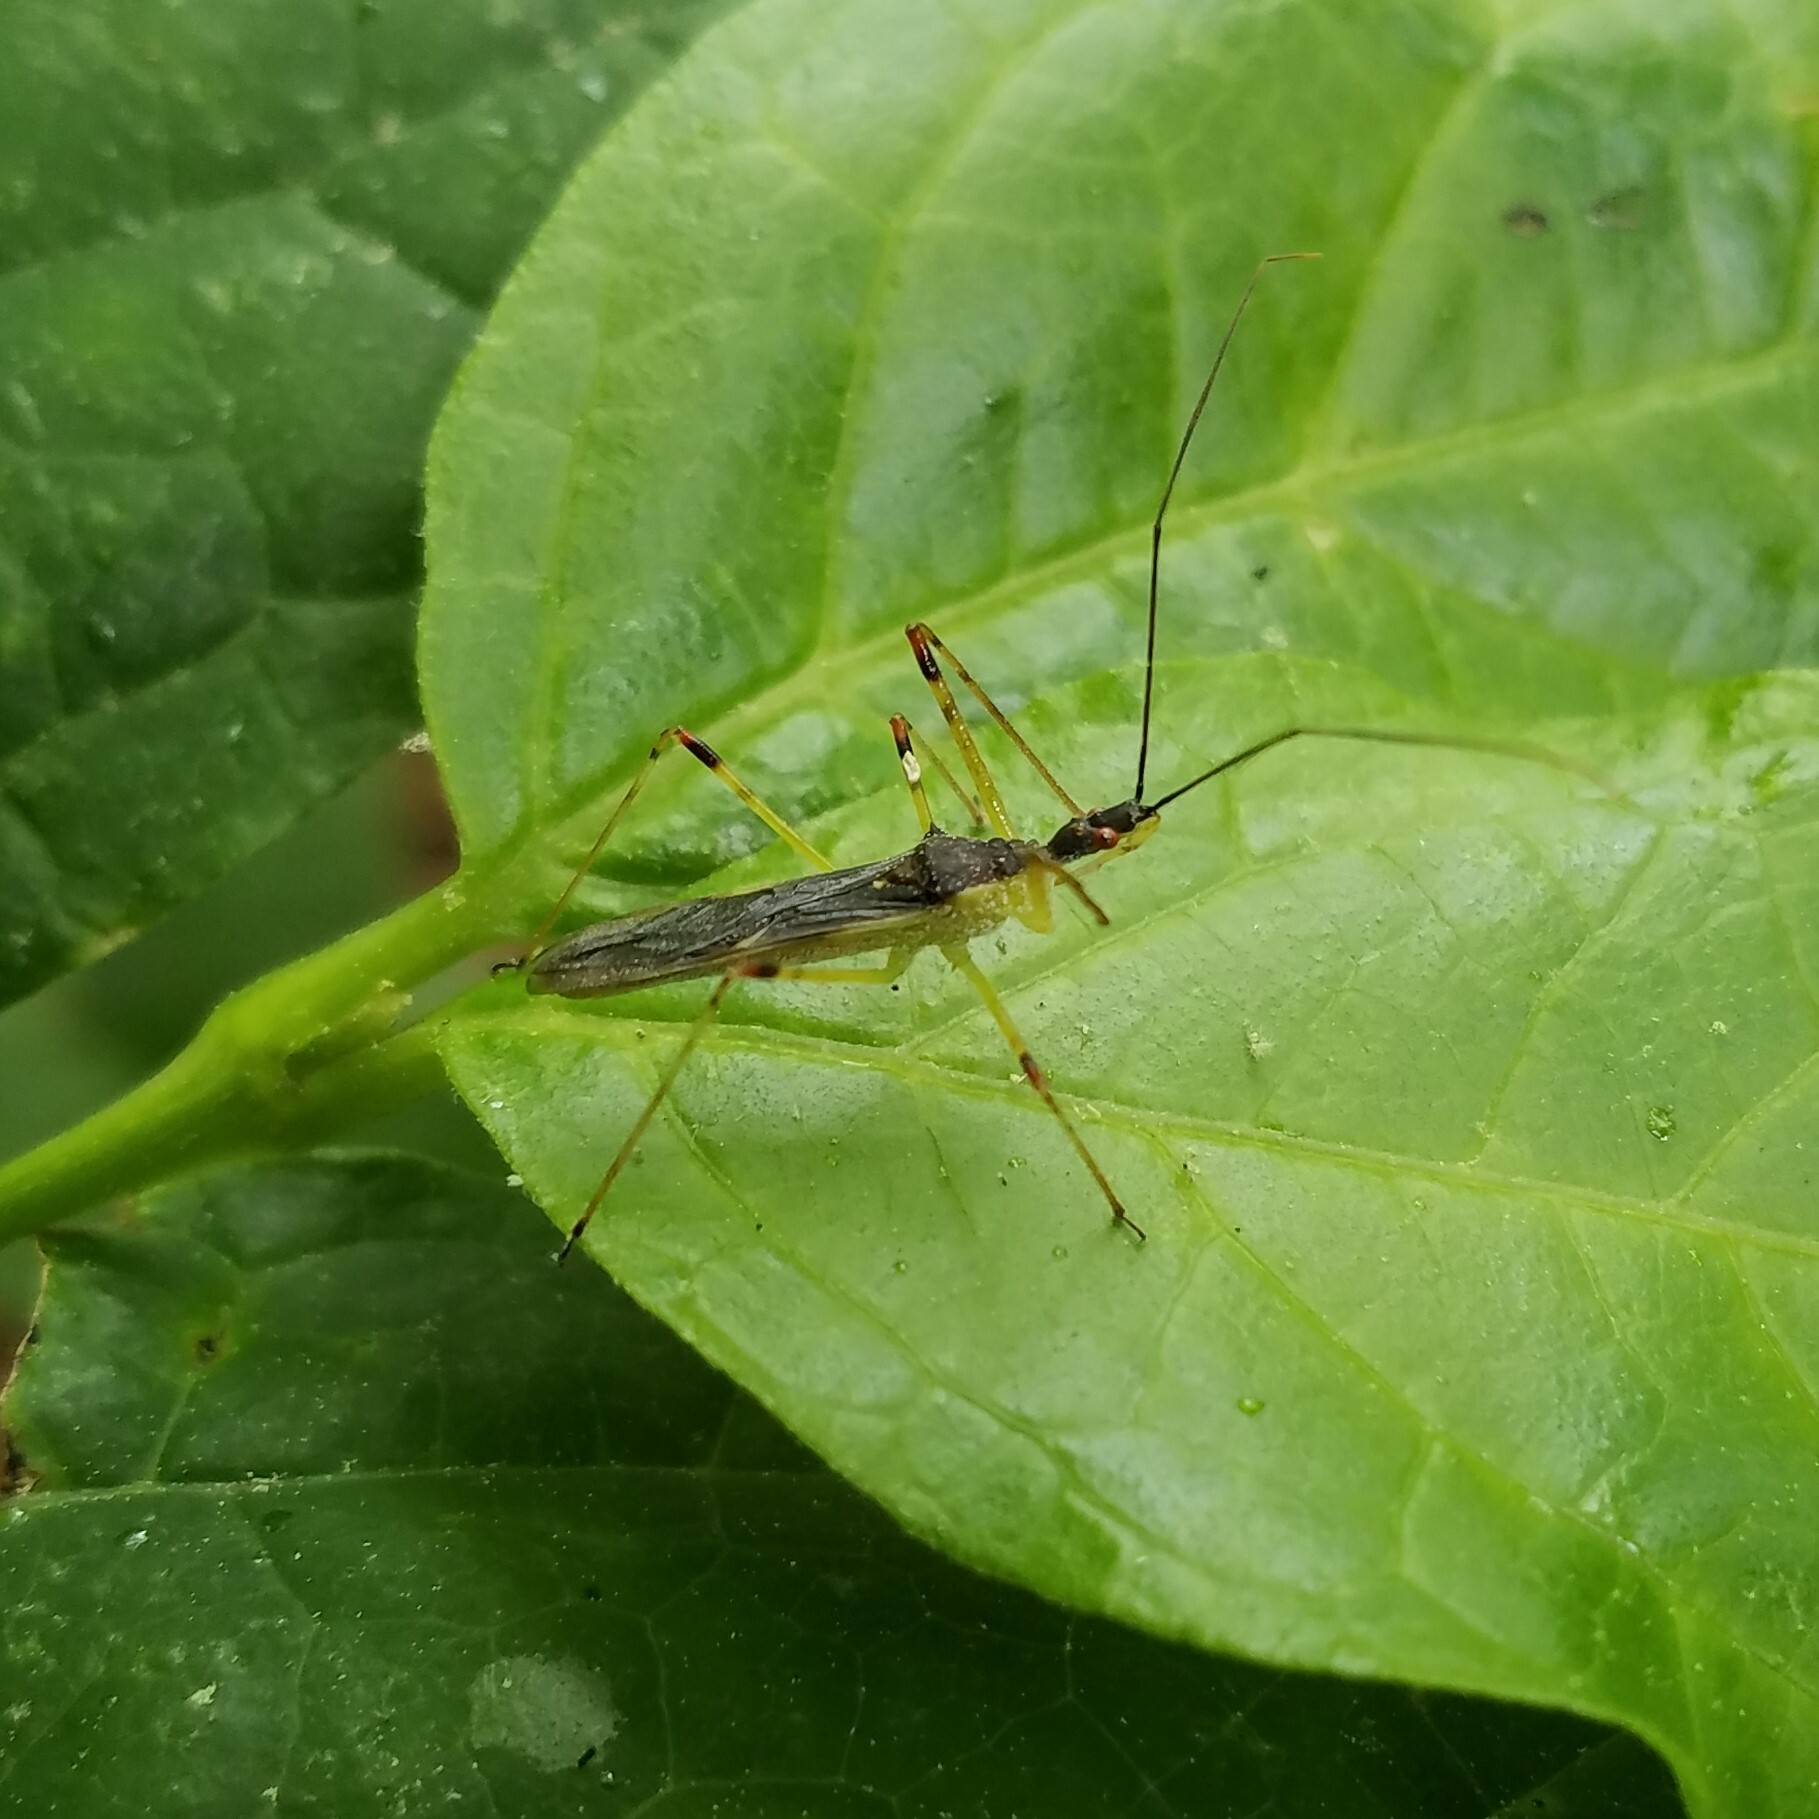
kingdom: Animalia
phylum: Arthropoda
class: Insecta
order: Hemiptera
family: Reduviidae
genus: Zelus
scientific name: Zelus luridus
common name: Pale green assassin bug
